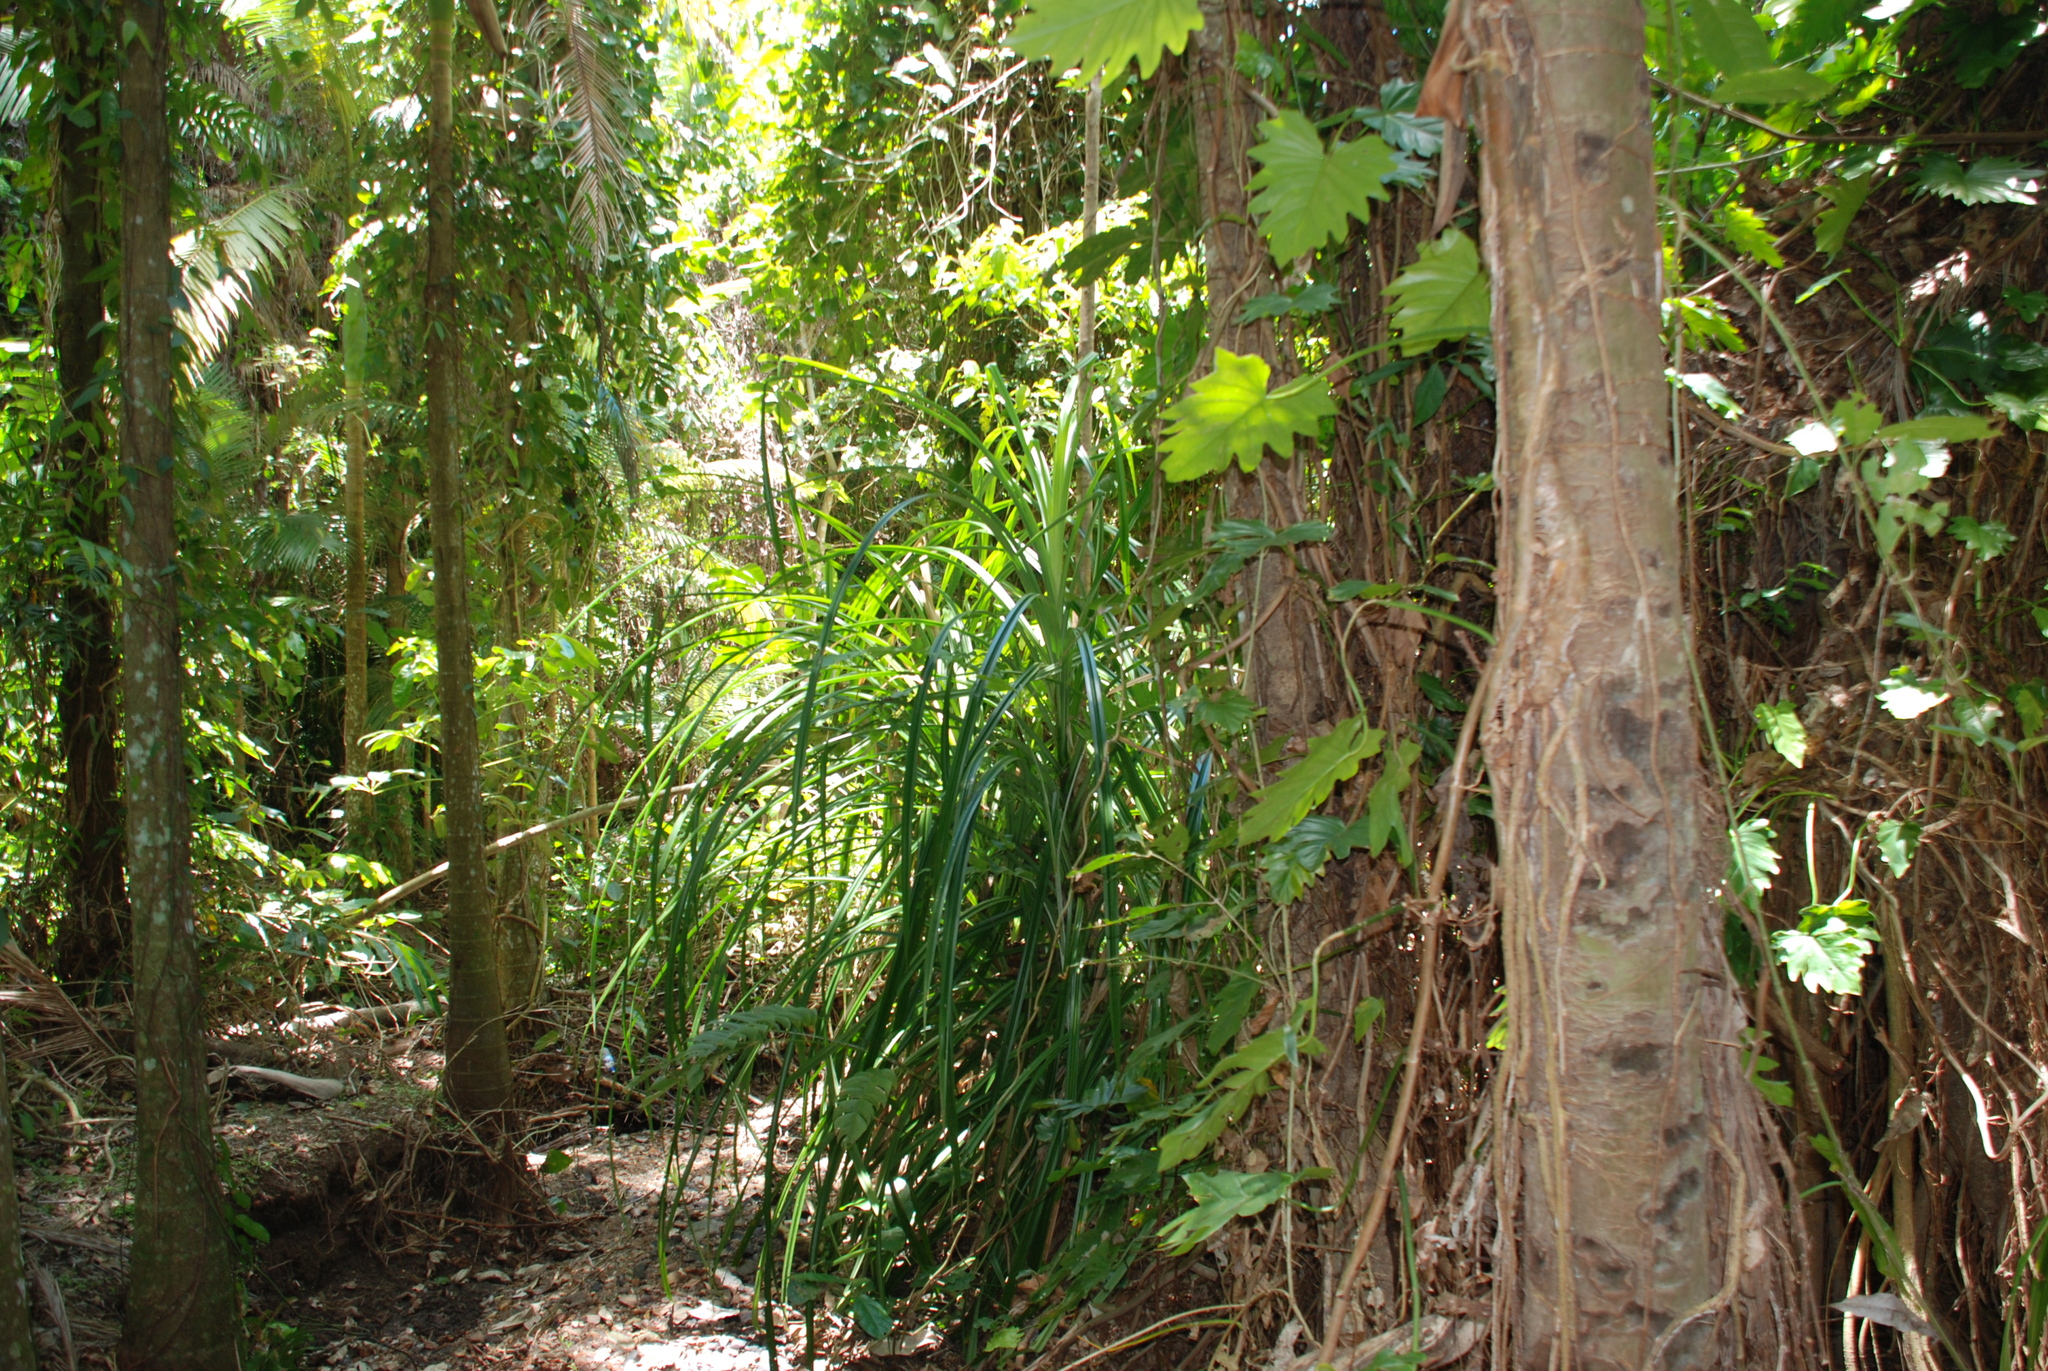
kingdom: Plantae
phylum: Tracheophyta
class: Liliopsida
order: Pandanales
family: Pandanaceae
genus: Benstonea
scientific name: Benstonea monticola
